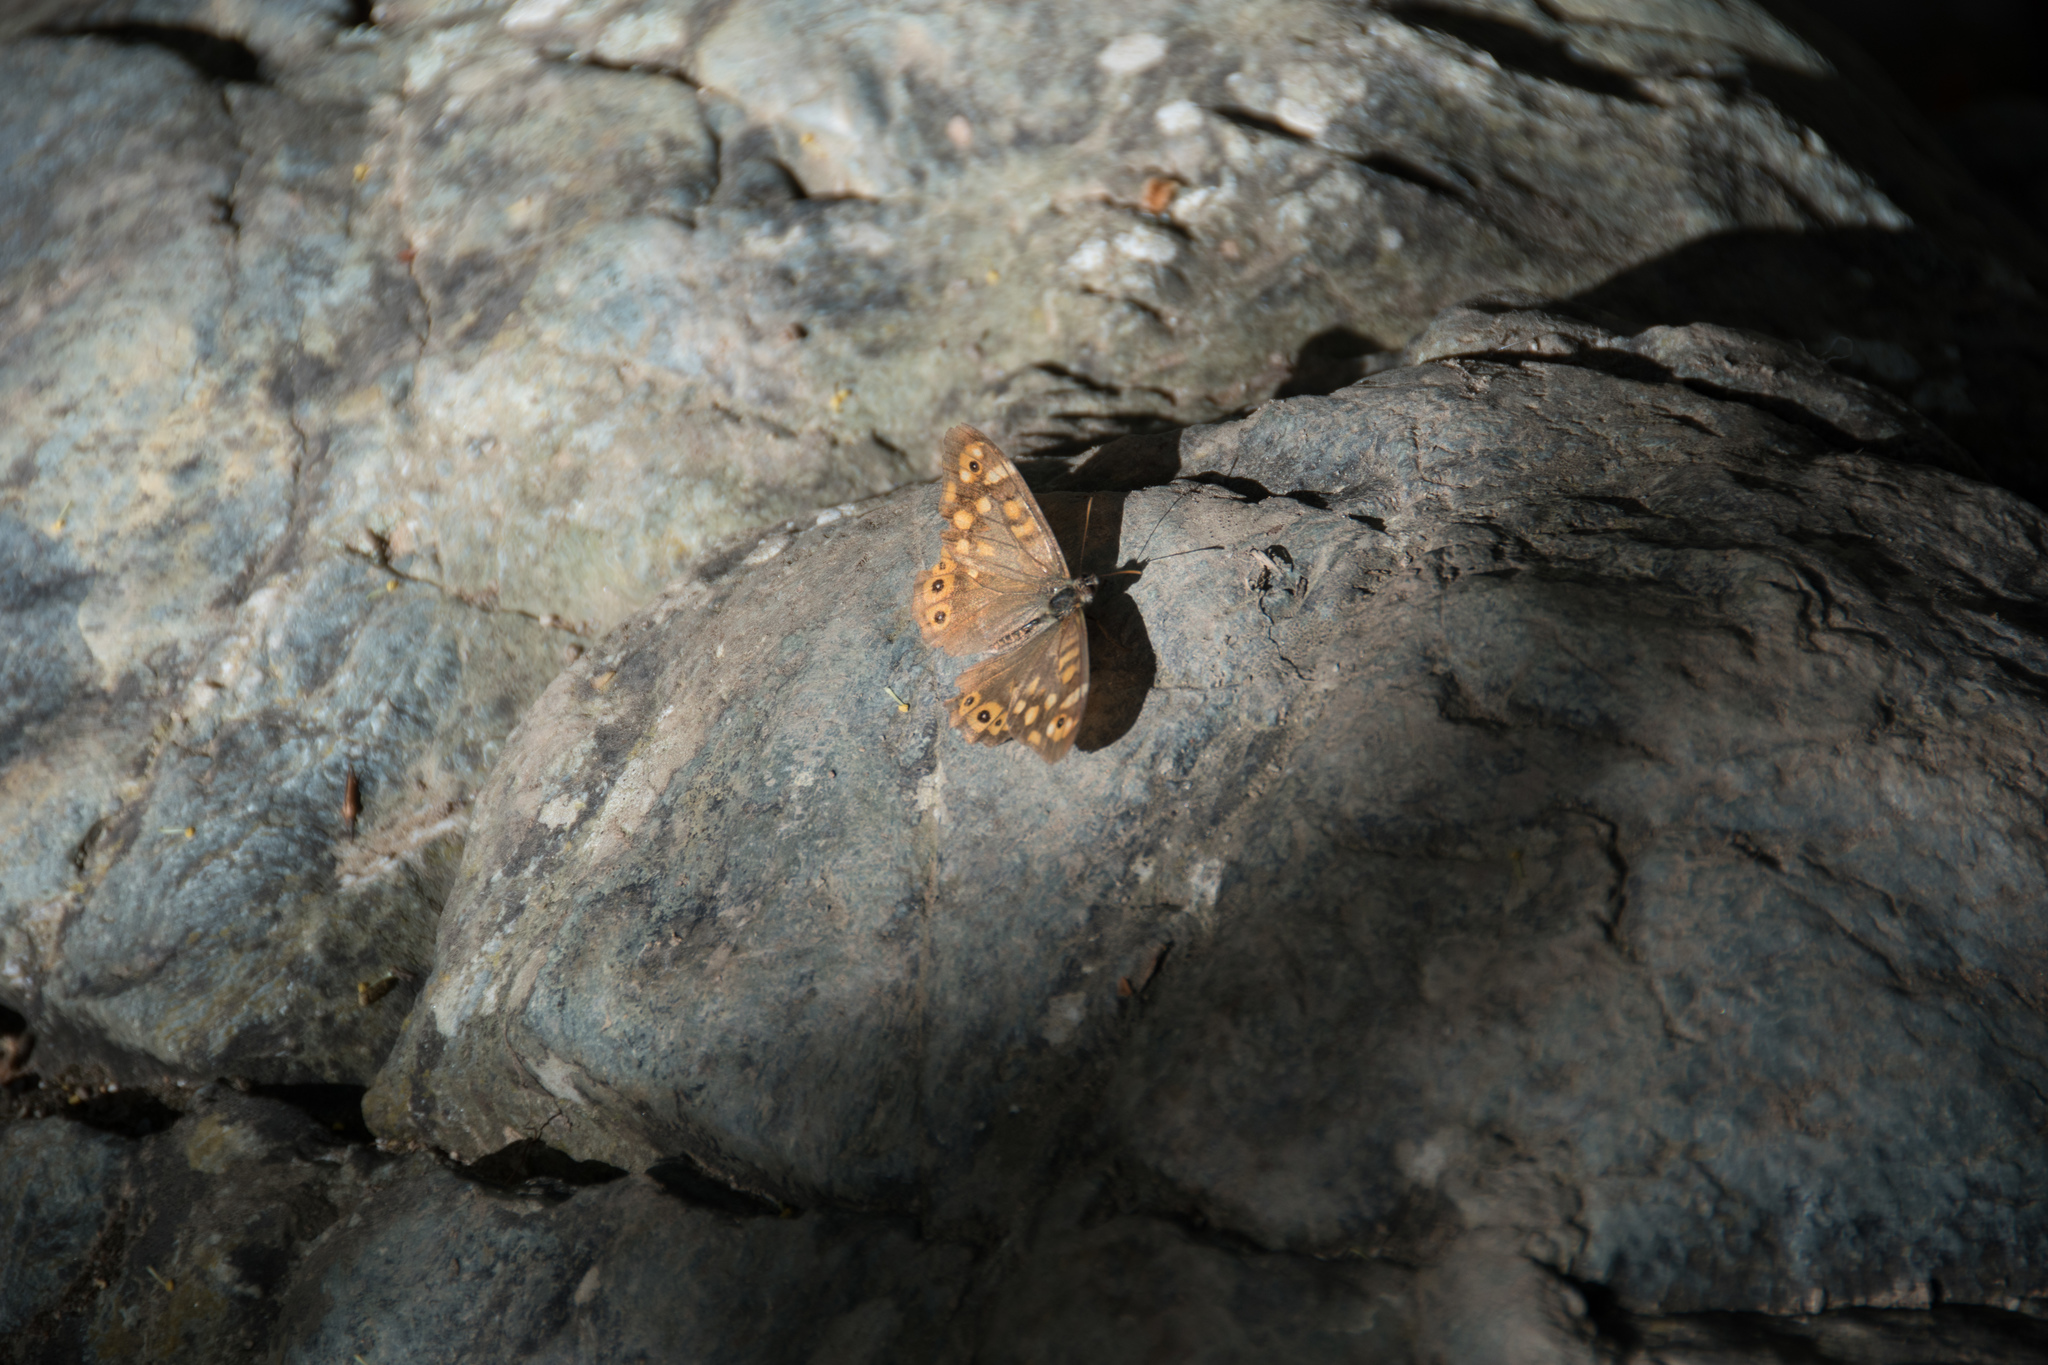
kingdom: Animalia
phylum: Arthropoda
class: Insecta
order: Lepidoptera
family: Nymphalidae
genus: Pararge
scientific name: Pararge aegeria
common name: Speckled wood
